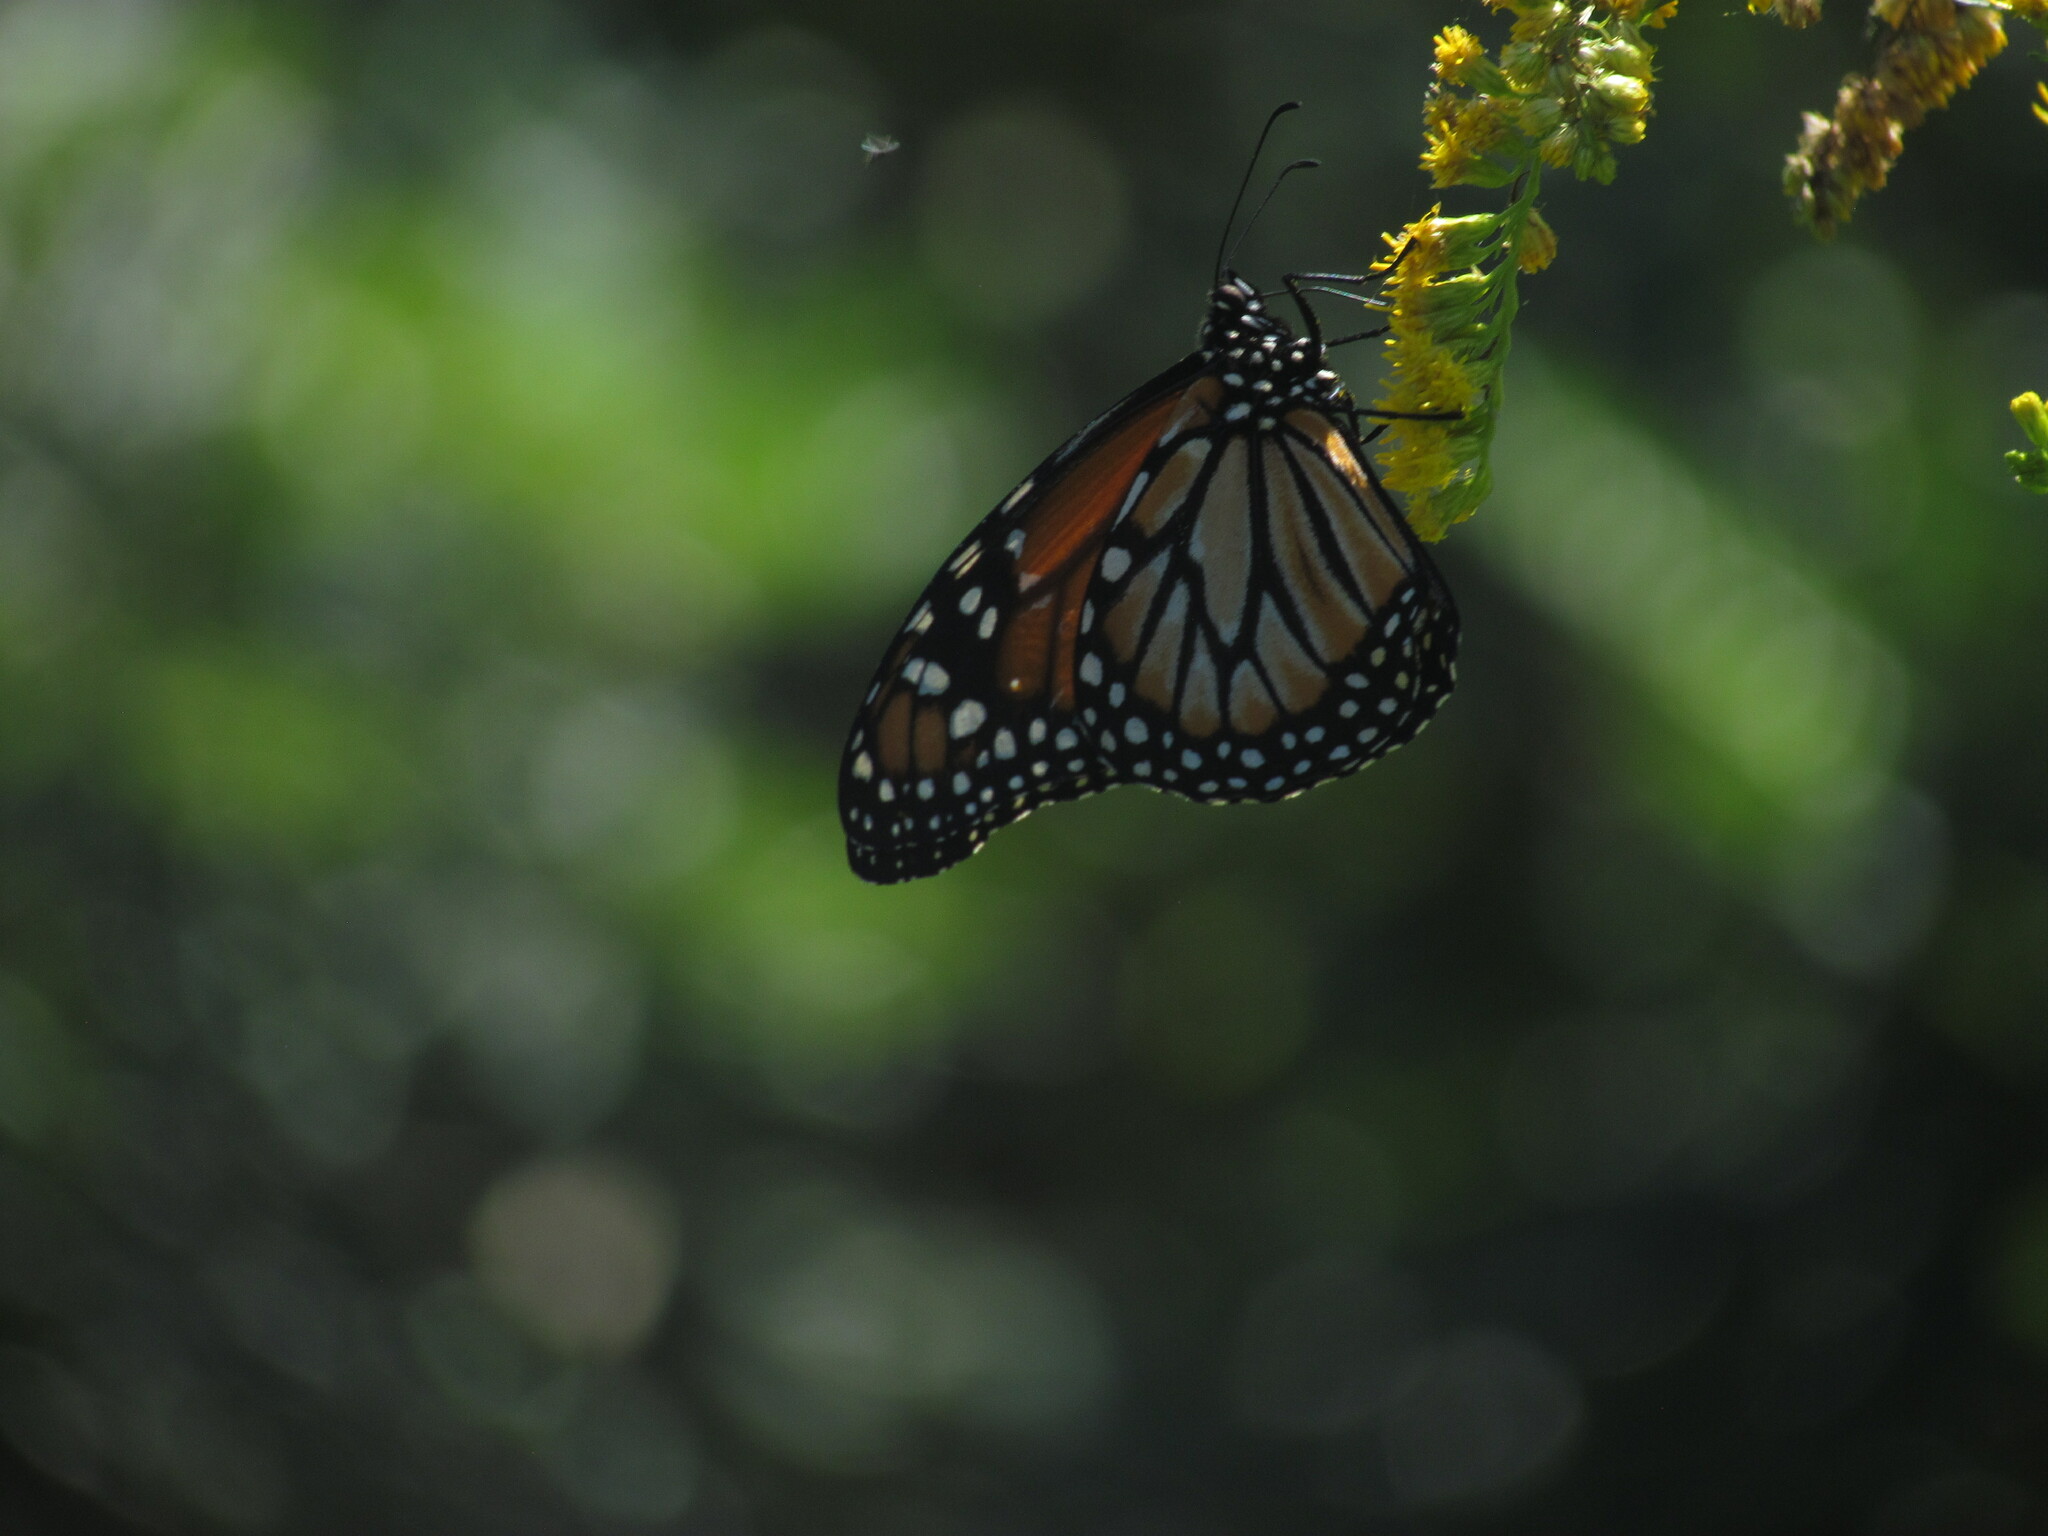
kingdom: Animalia
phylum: Arthropoda
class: Insecta
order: Lepidoptera
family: Nymphalidae
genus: Danaus
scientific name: Danaus erippus
